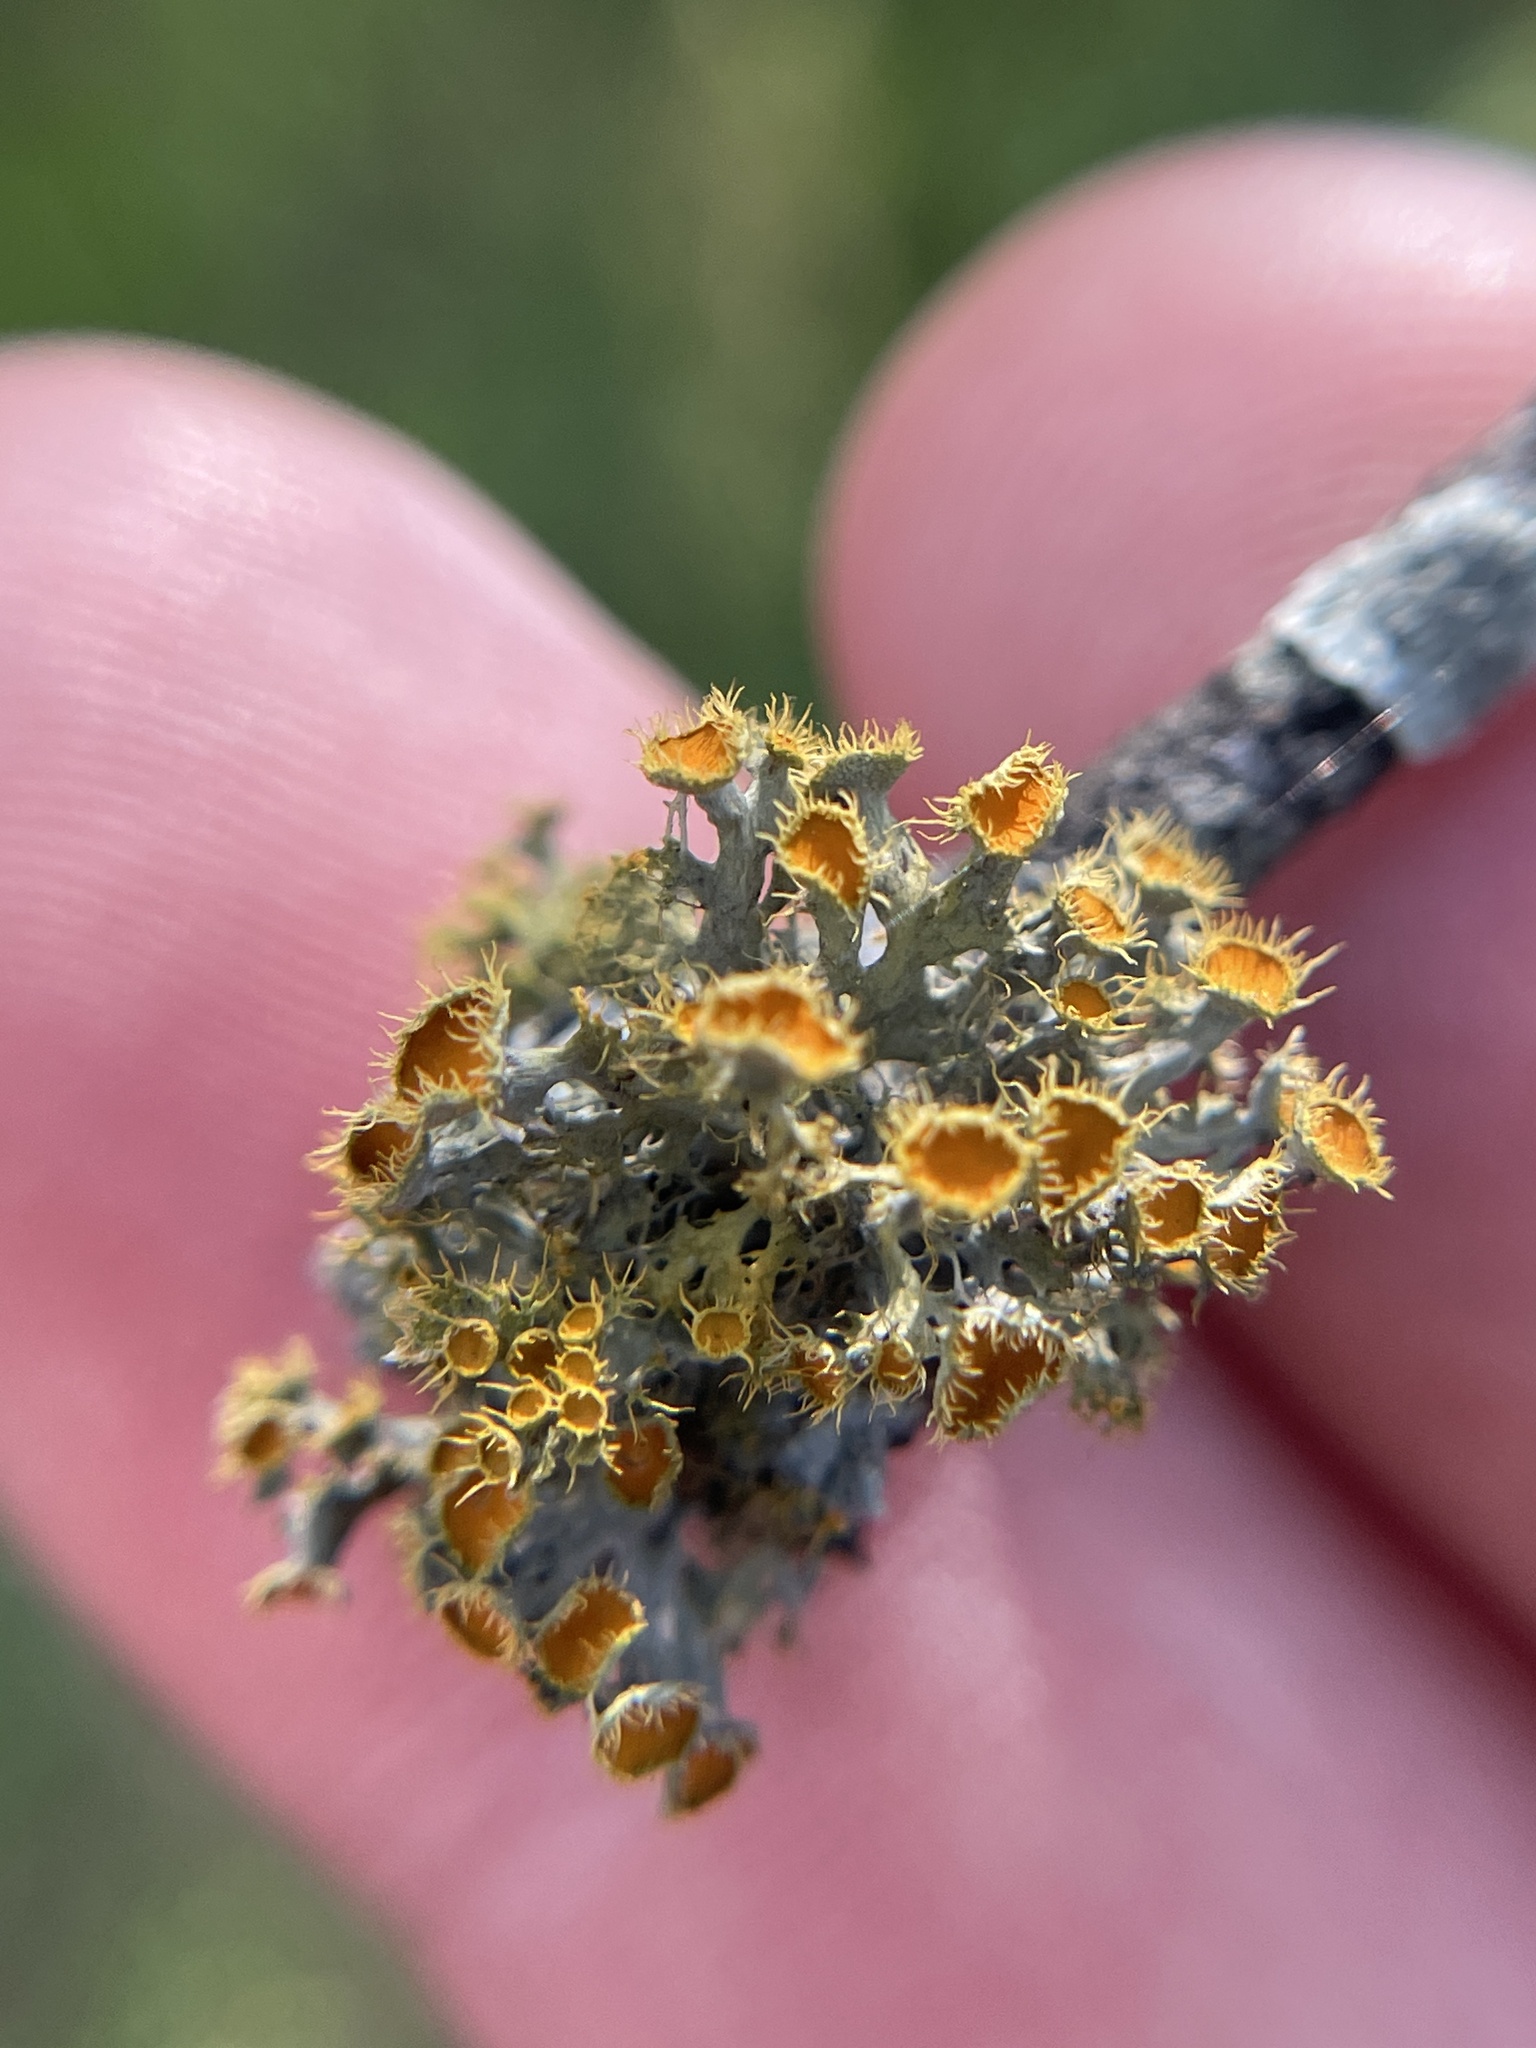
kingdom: Fungi
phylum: Ascomycota
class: Lecanoromycetes
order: Teloschistales
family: Teloschistaceae
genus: Niorma
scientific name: Niorma chrysophthalma
